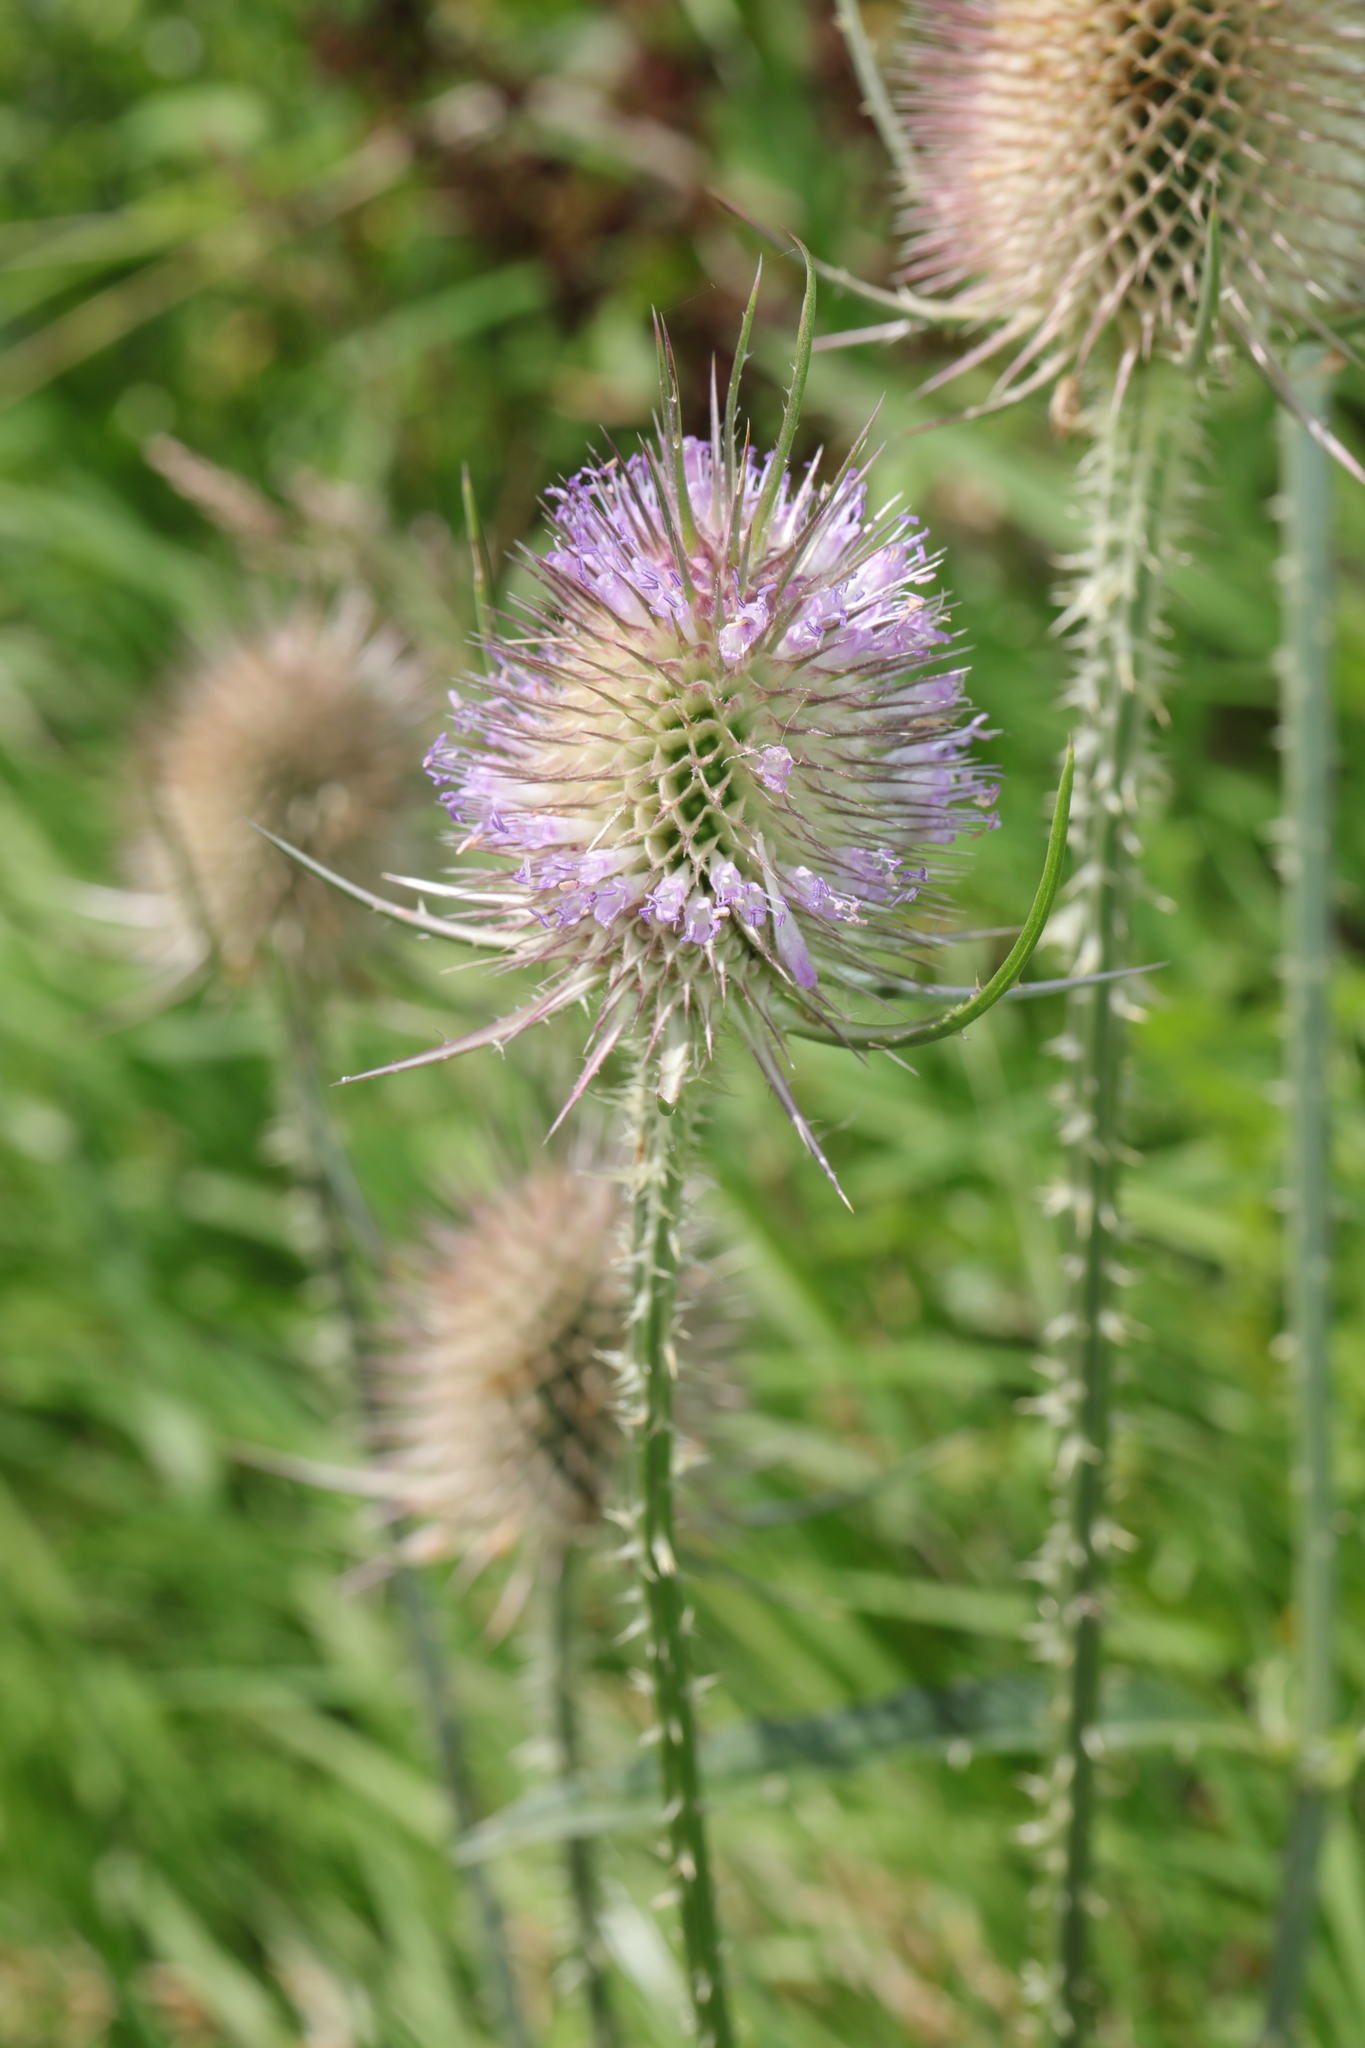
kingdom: Plantae
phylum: Tracheophyta
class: Magnoliopsida
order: Dipsacales
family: Caprifoliaceae
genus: Dipsacus
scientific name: Dipsacus fullonum
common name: Teasel
